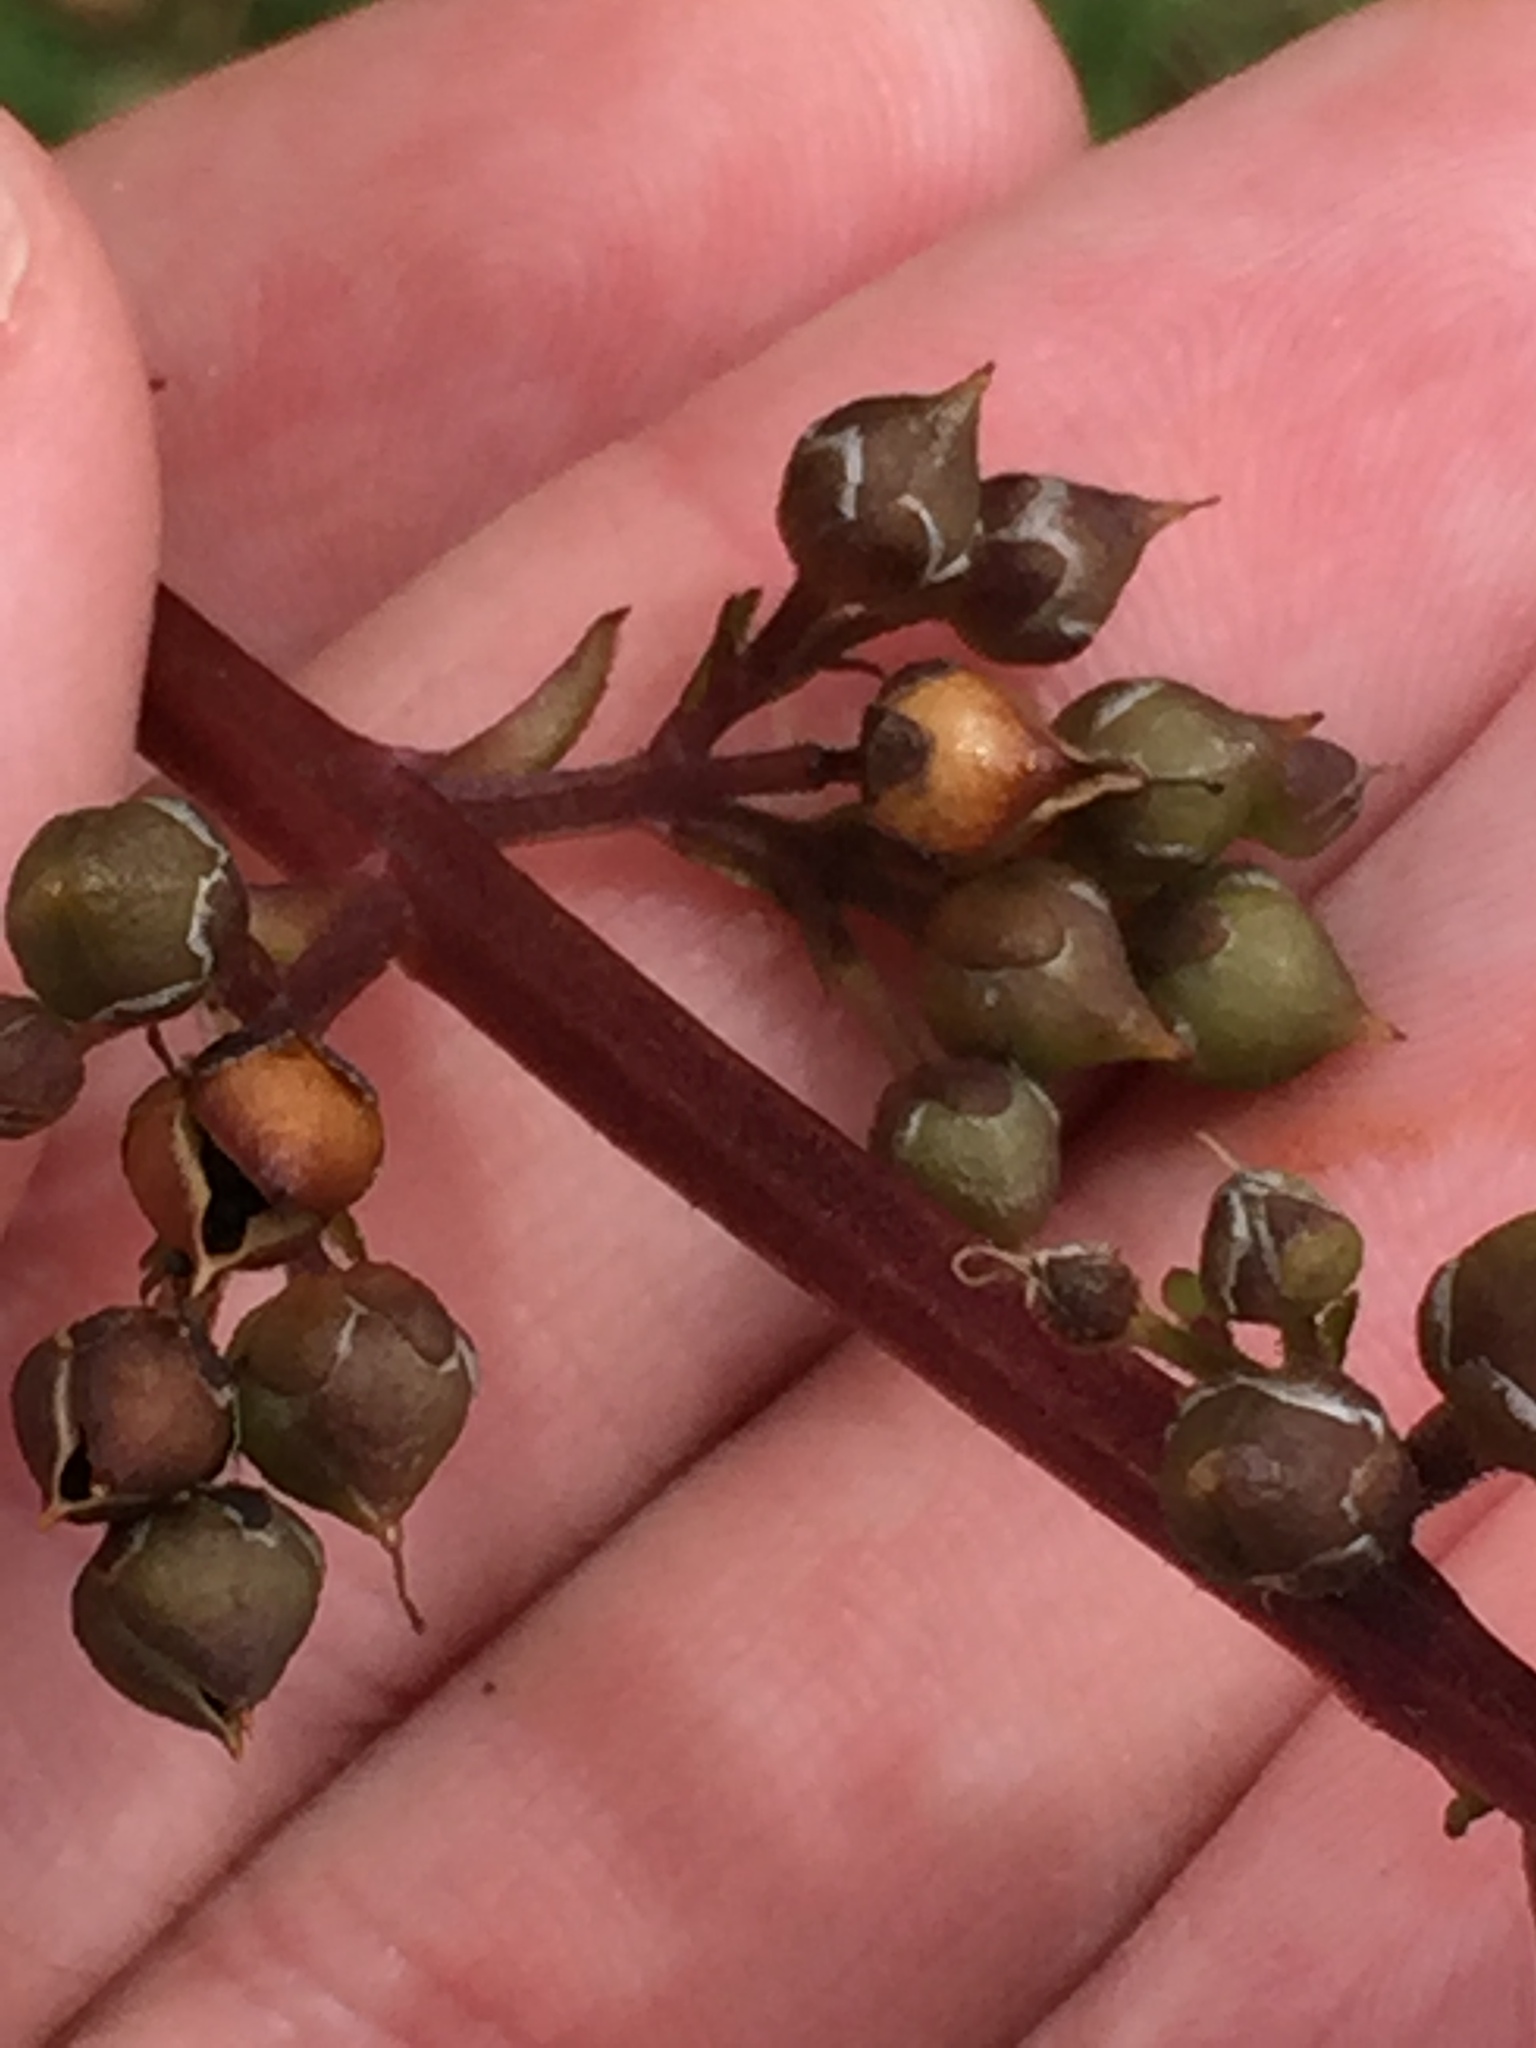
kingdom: Plantae
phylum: Tracheophyta
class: Magnoliopsida
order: Lamiales
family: Scrophulariaceae
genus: Scrophularia
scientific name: Scrophularia auriculata
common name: Water betony
